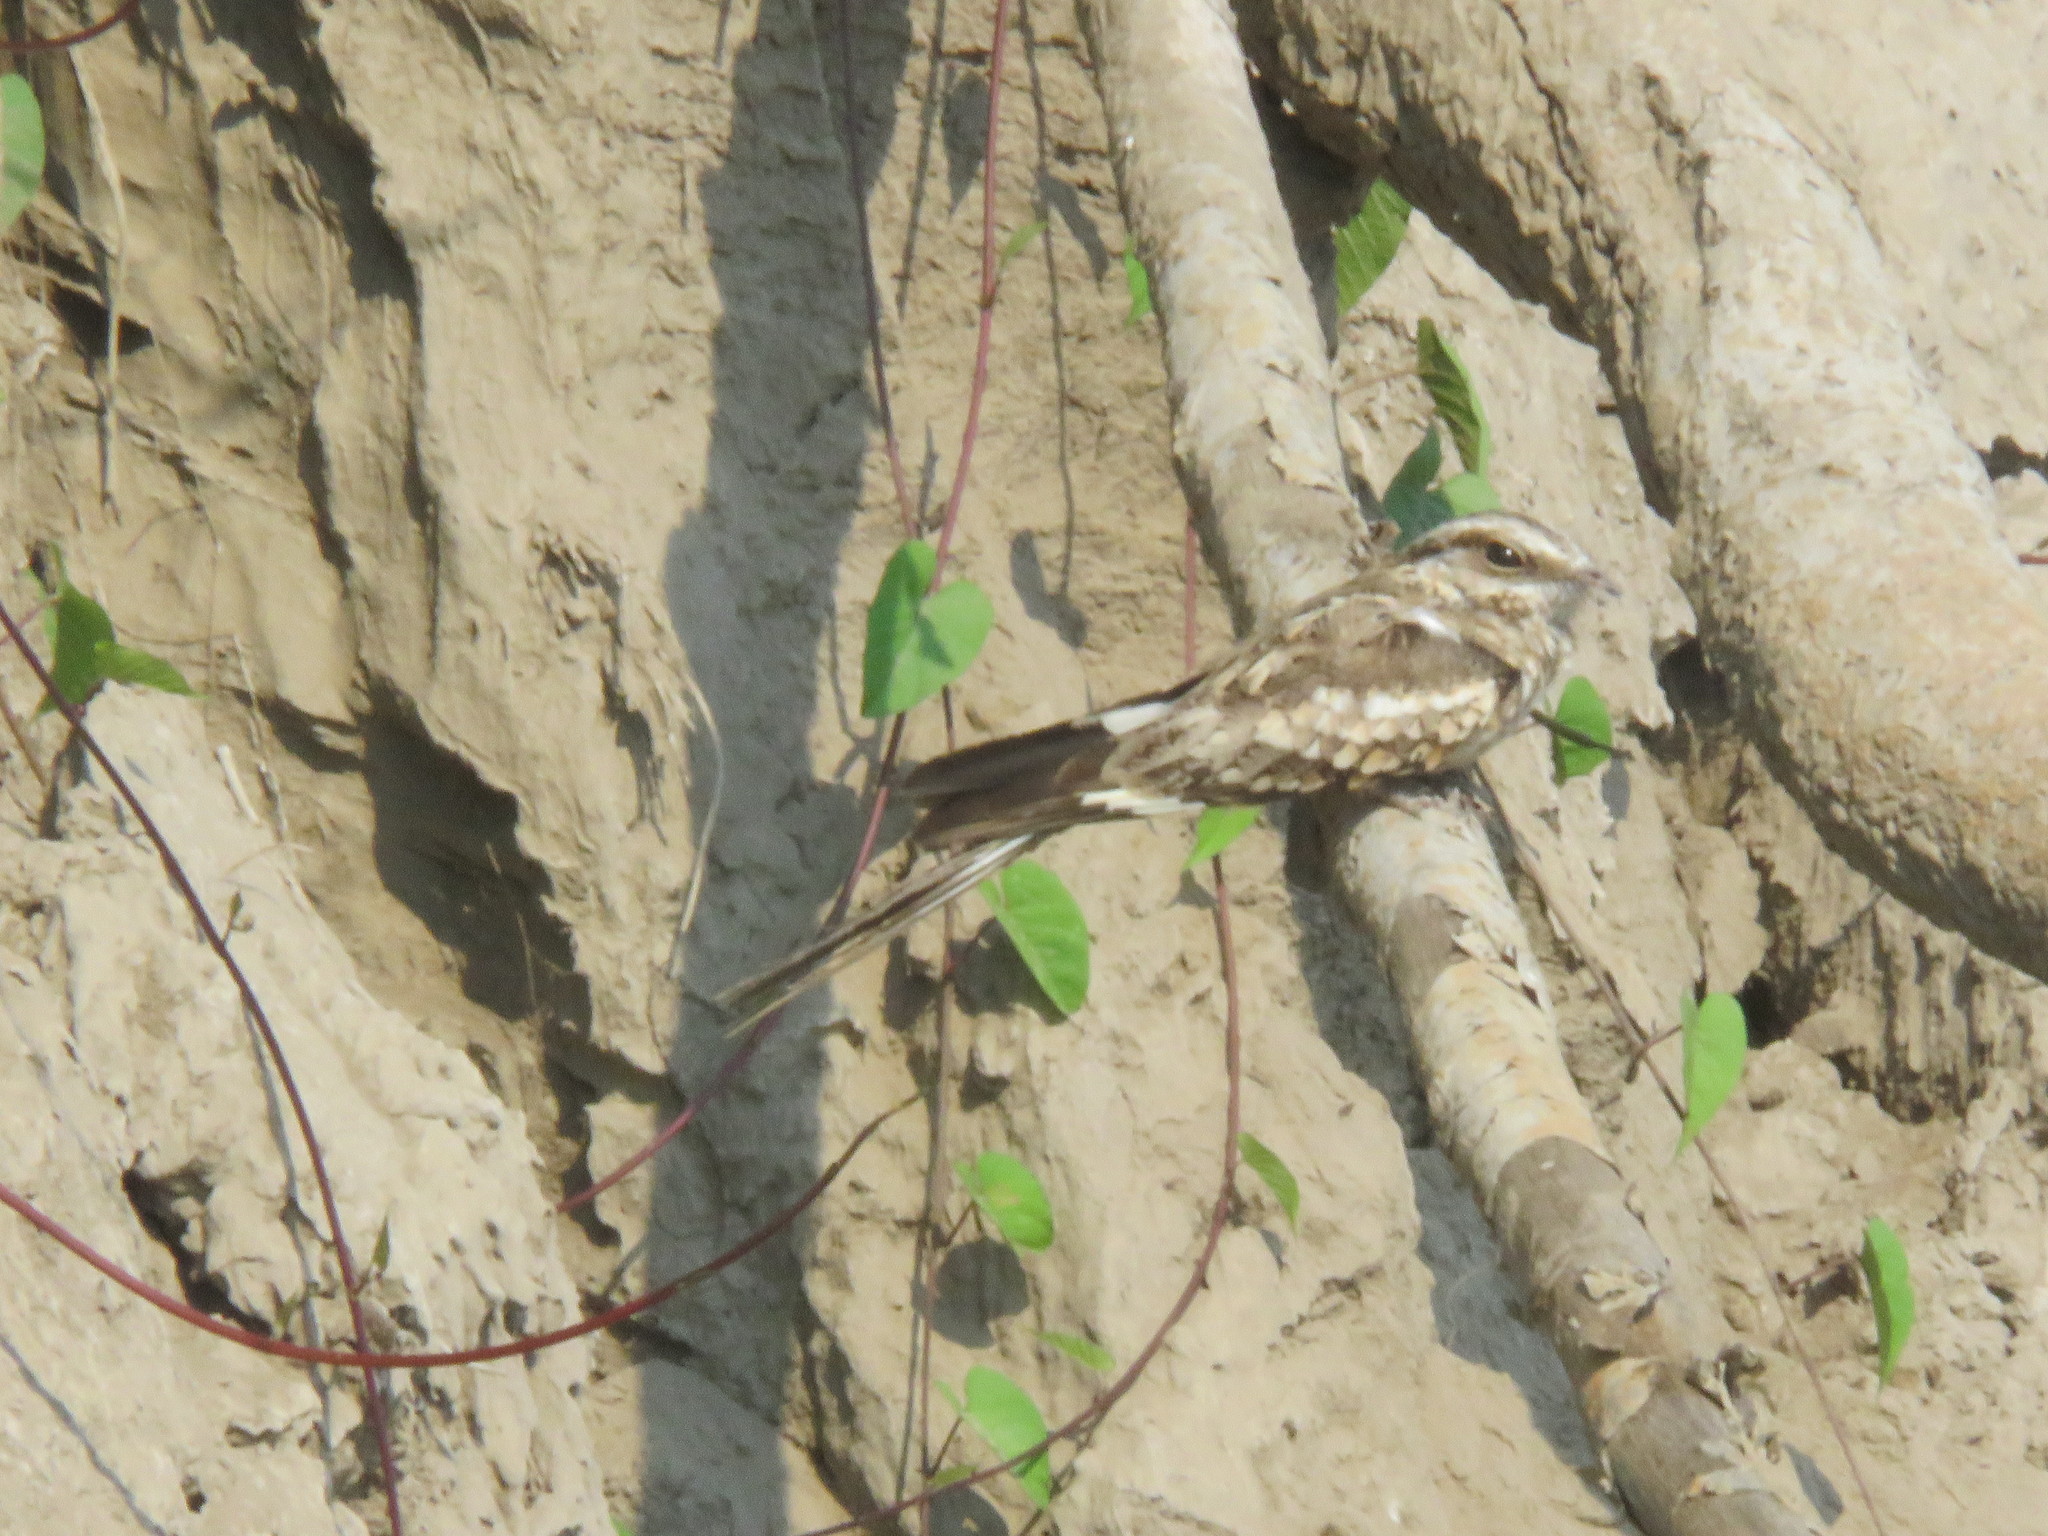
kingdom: Animalia
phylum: Chordata
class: Aves
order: Caprimulgiformes
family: Caprimulgidae
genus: Hydropsalis
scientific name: Hydropsalis climacocerca
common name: Ladder-tailed nightjar
